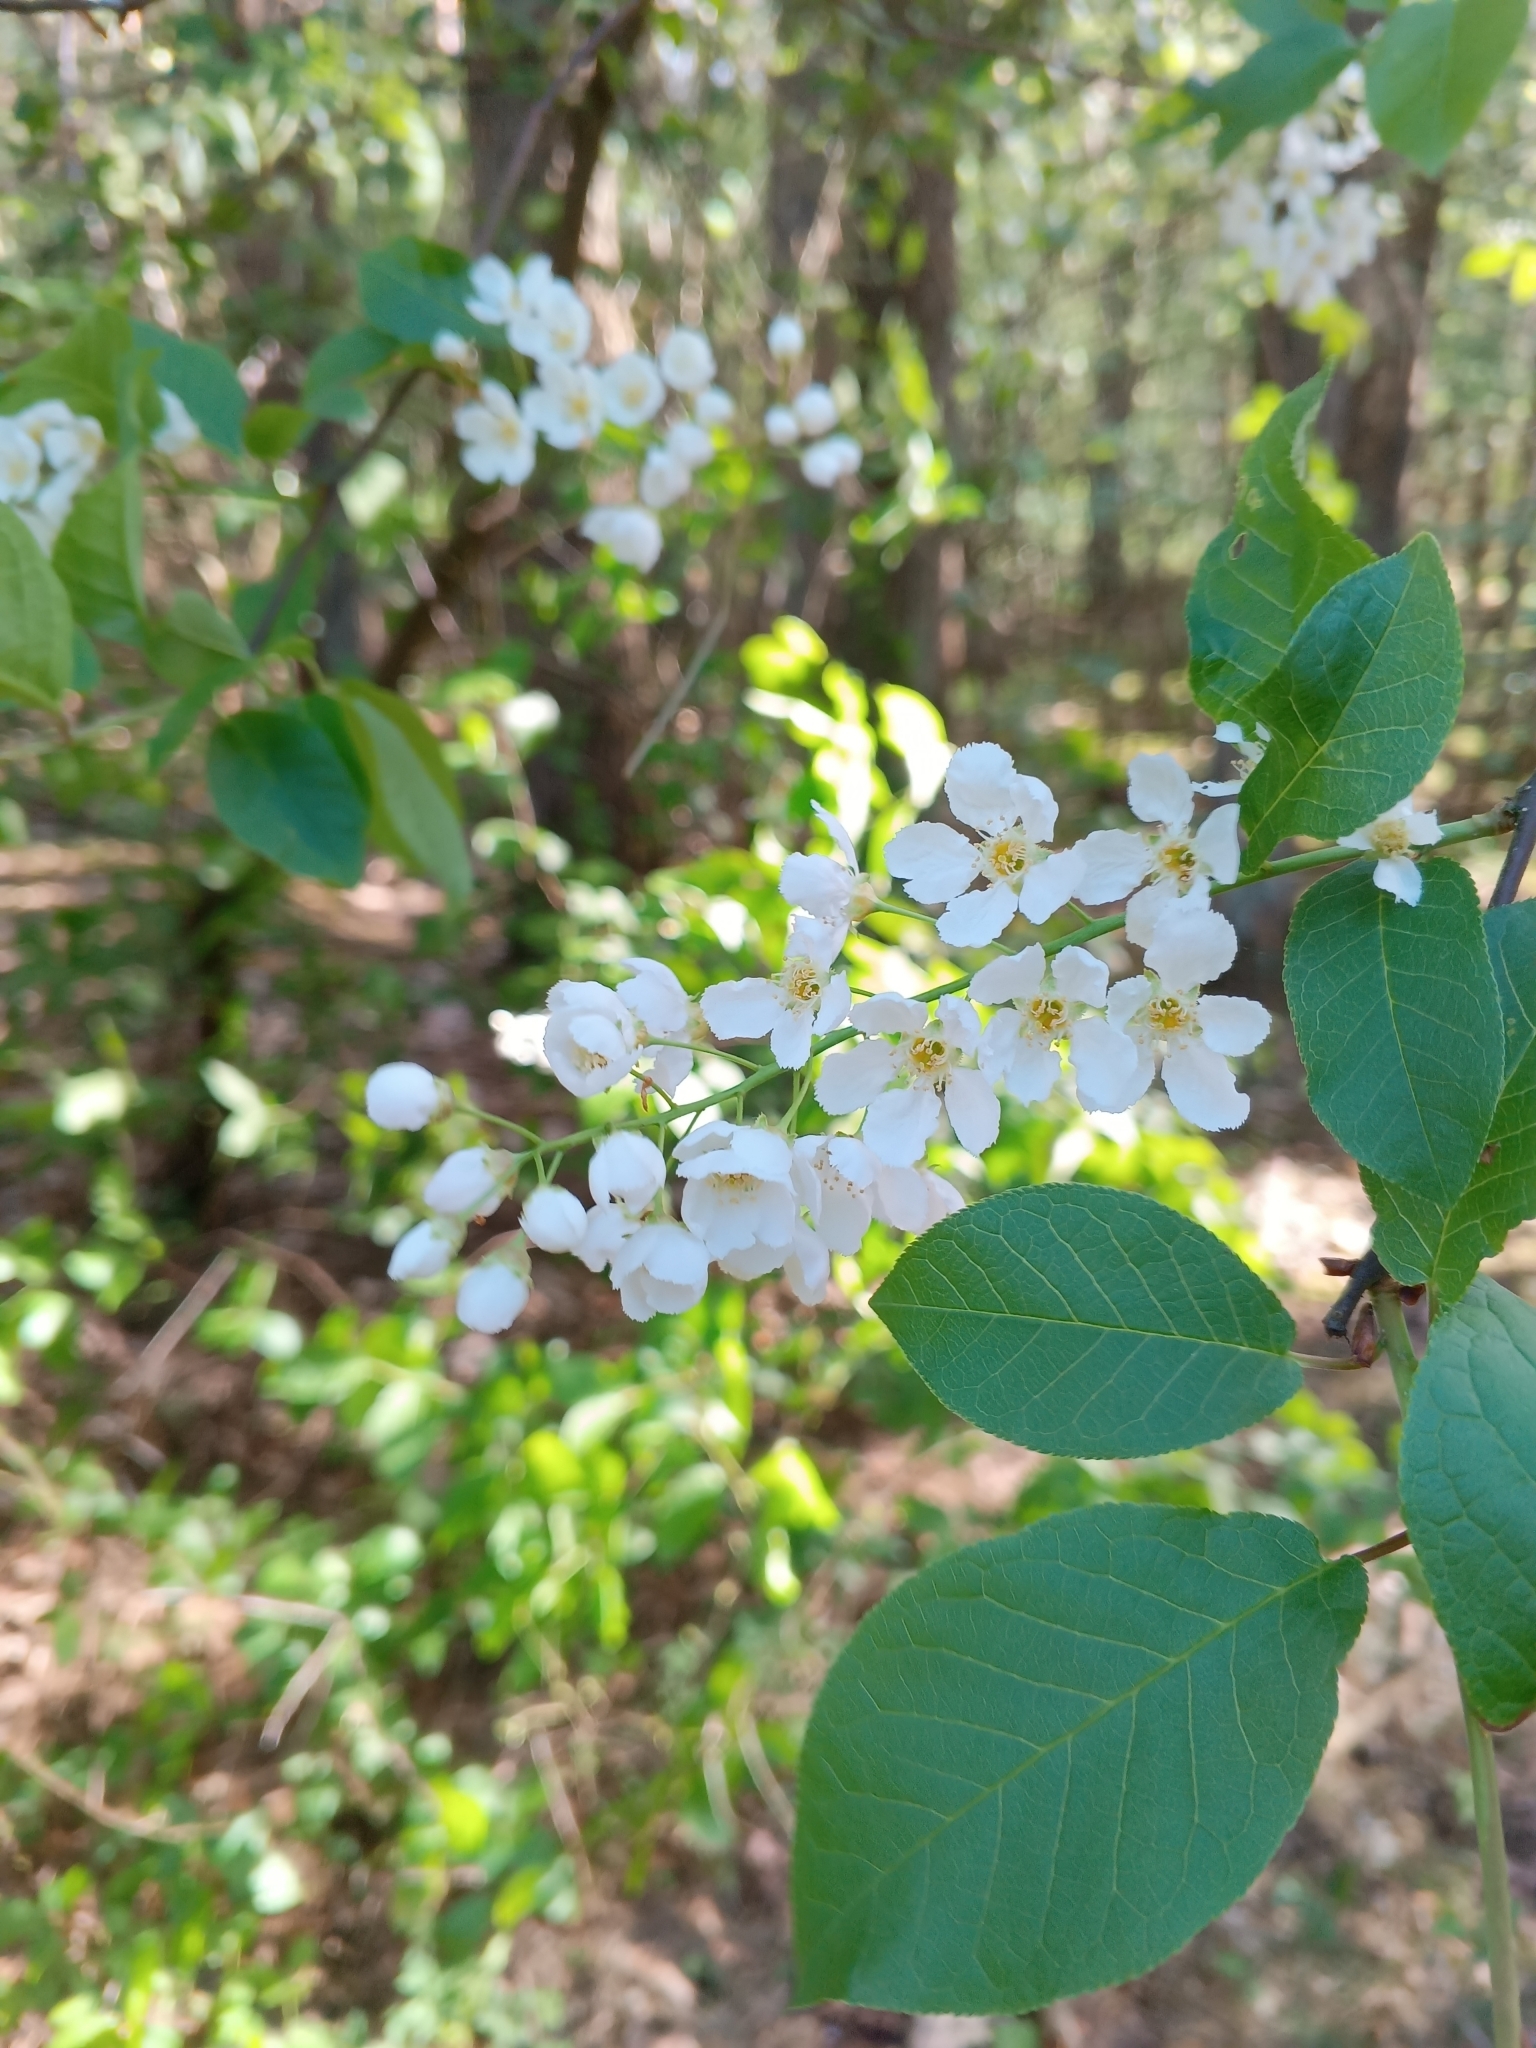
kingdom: Plantae
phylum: Tracheophyta
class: Magnoliopsida
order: Rosales
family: Rosaceae
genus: Prunus
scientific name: Prunus padus
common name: Bird cherry
